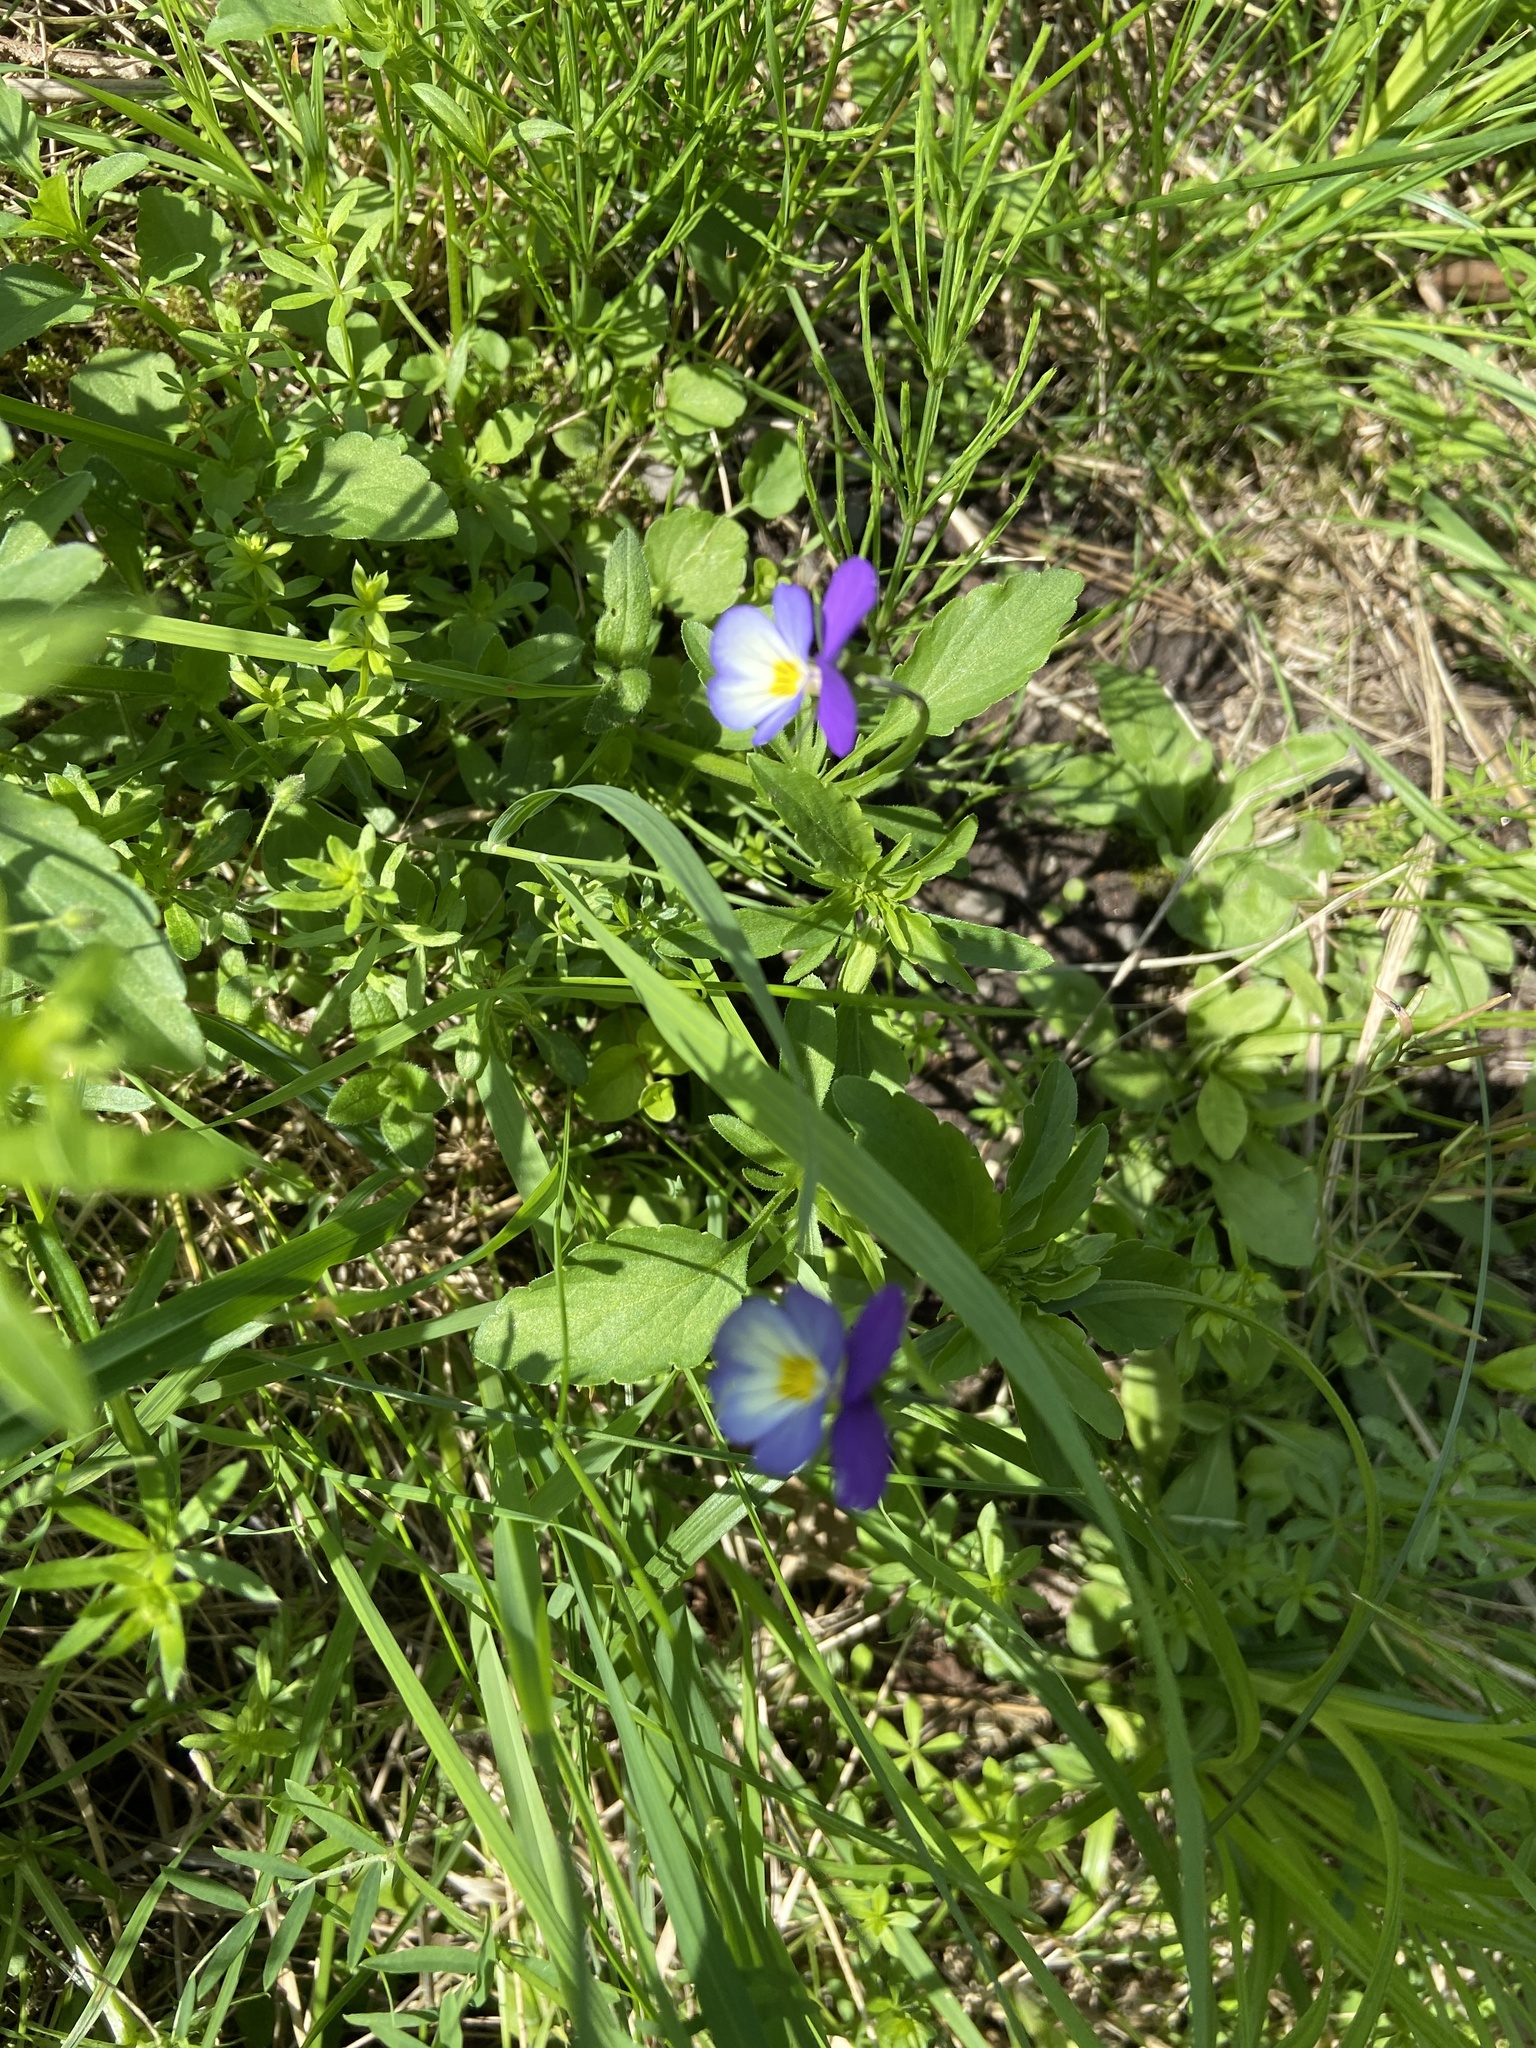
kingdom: Plantae
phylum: Tracheophyta
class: Magnoliopsida
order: Malpighiales
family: Violaceae
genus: Viola
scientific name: Viola tricolor
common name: Pansy
